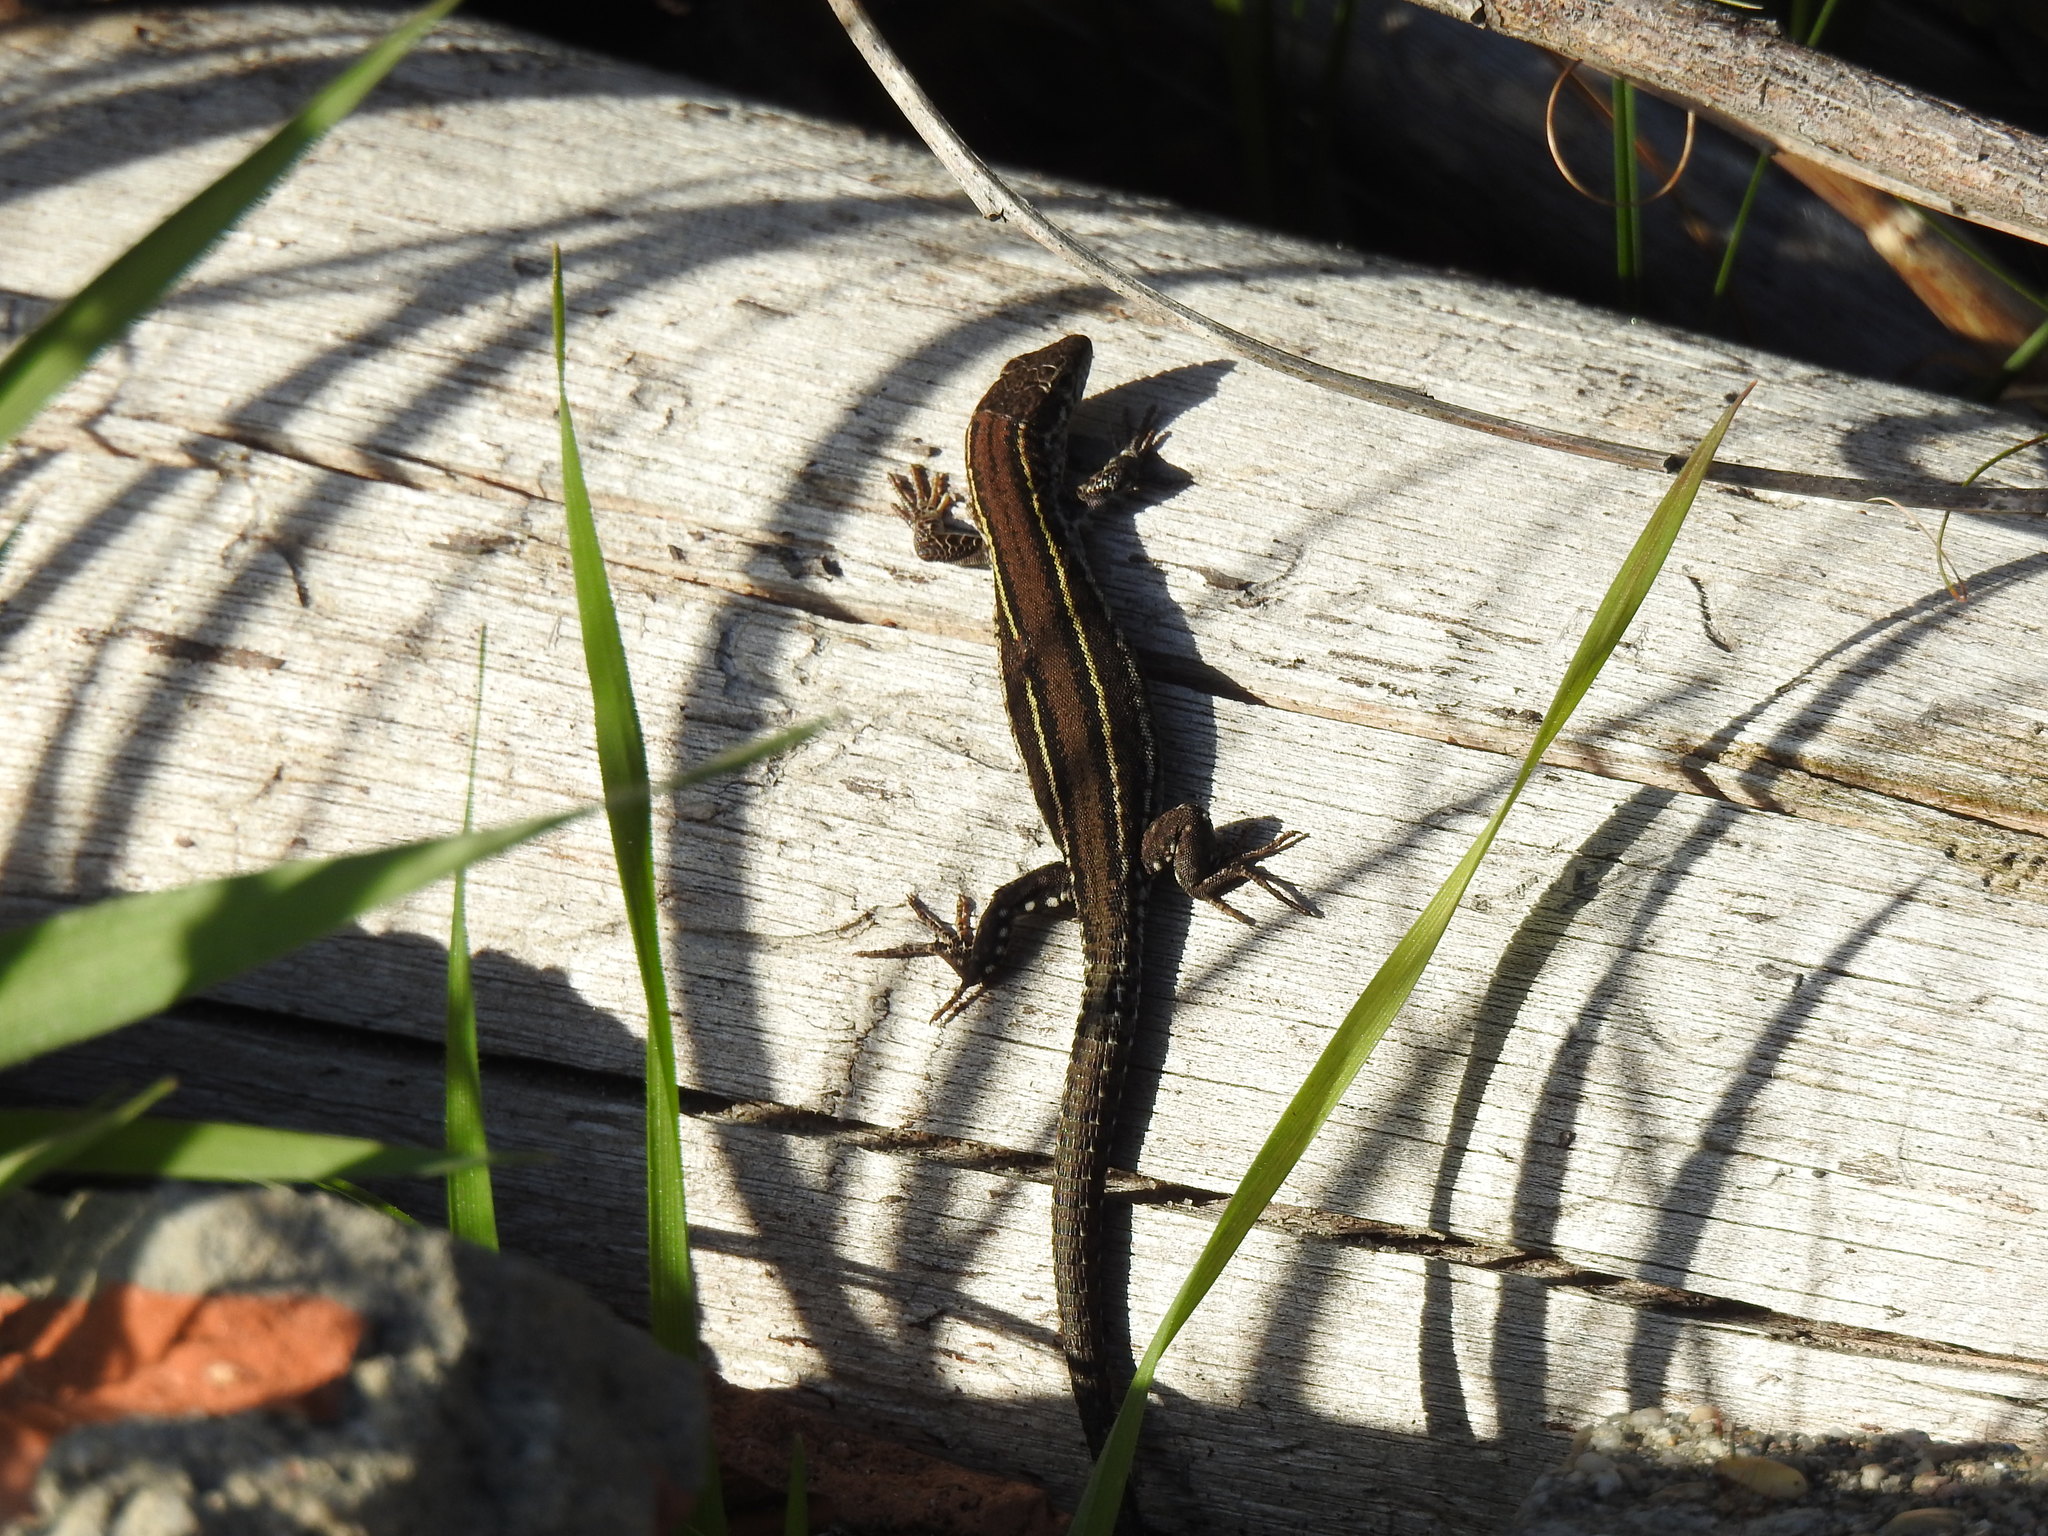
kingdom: Animalia
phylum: Chordata
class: Squamata
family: Lacertidae
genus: Podarcis
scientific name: Podarcis virescens
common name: Geniez’s wall lizard
